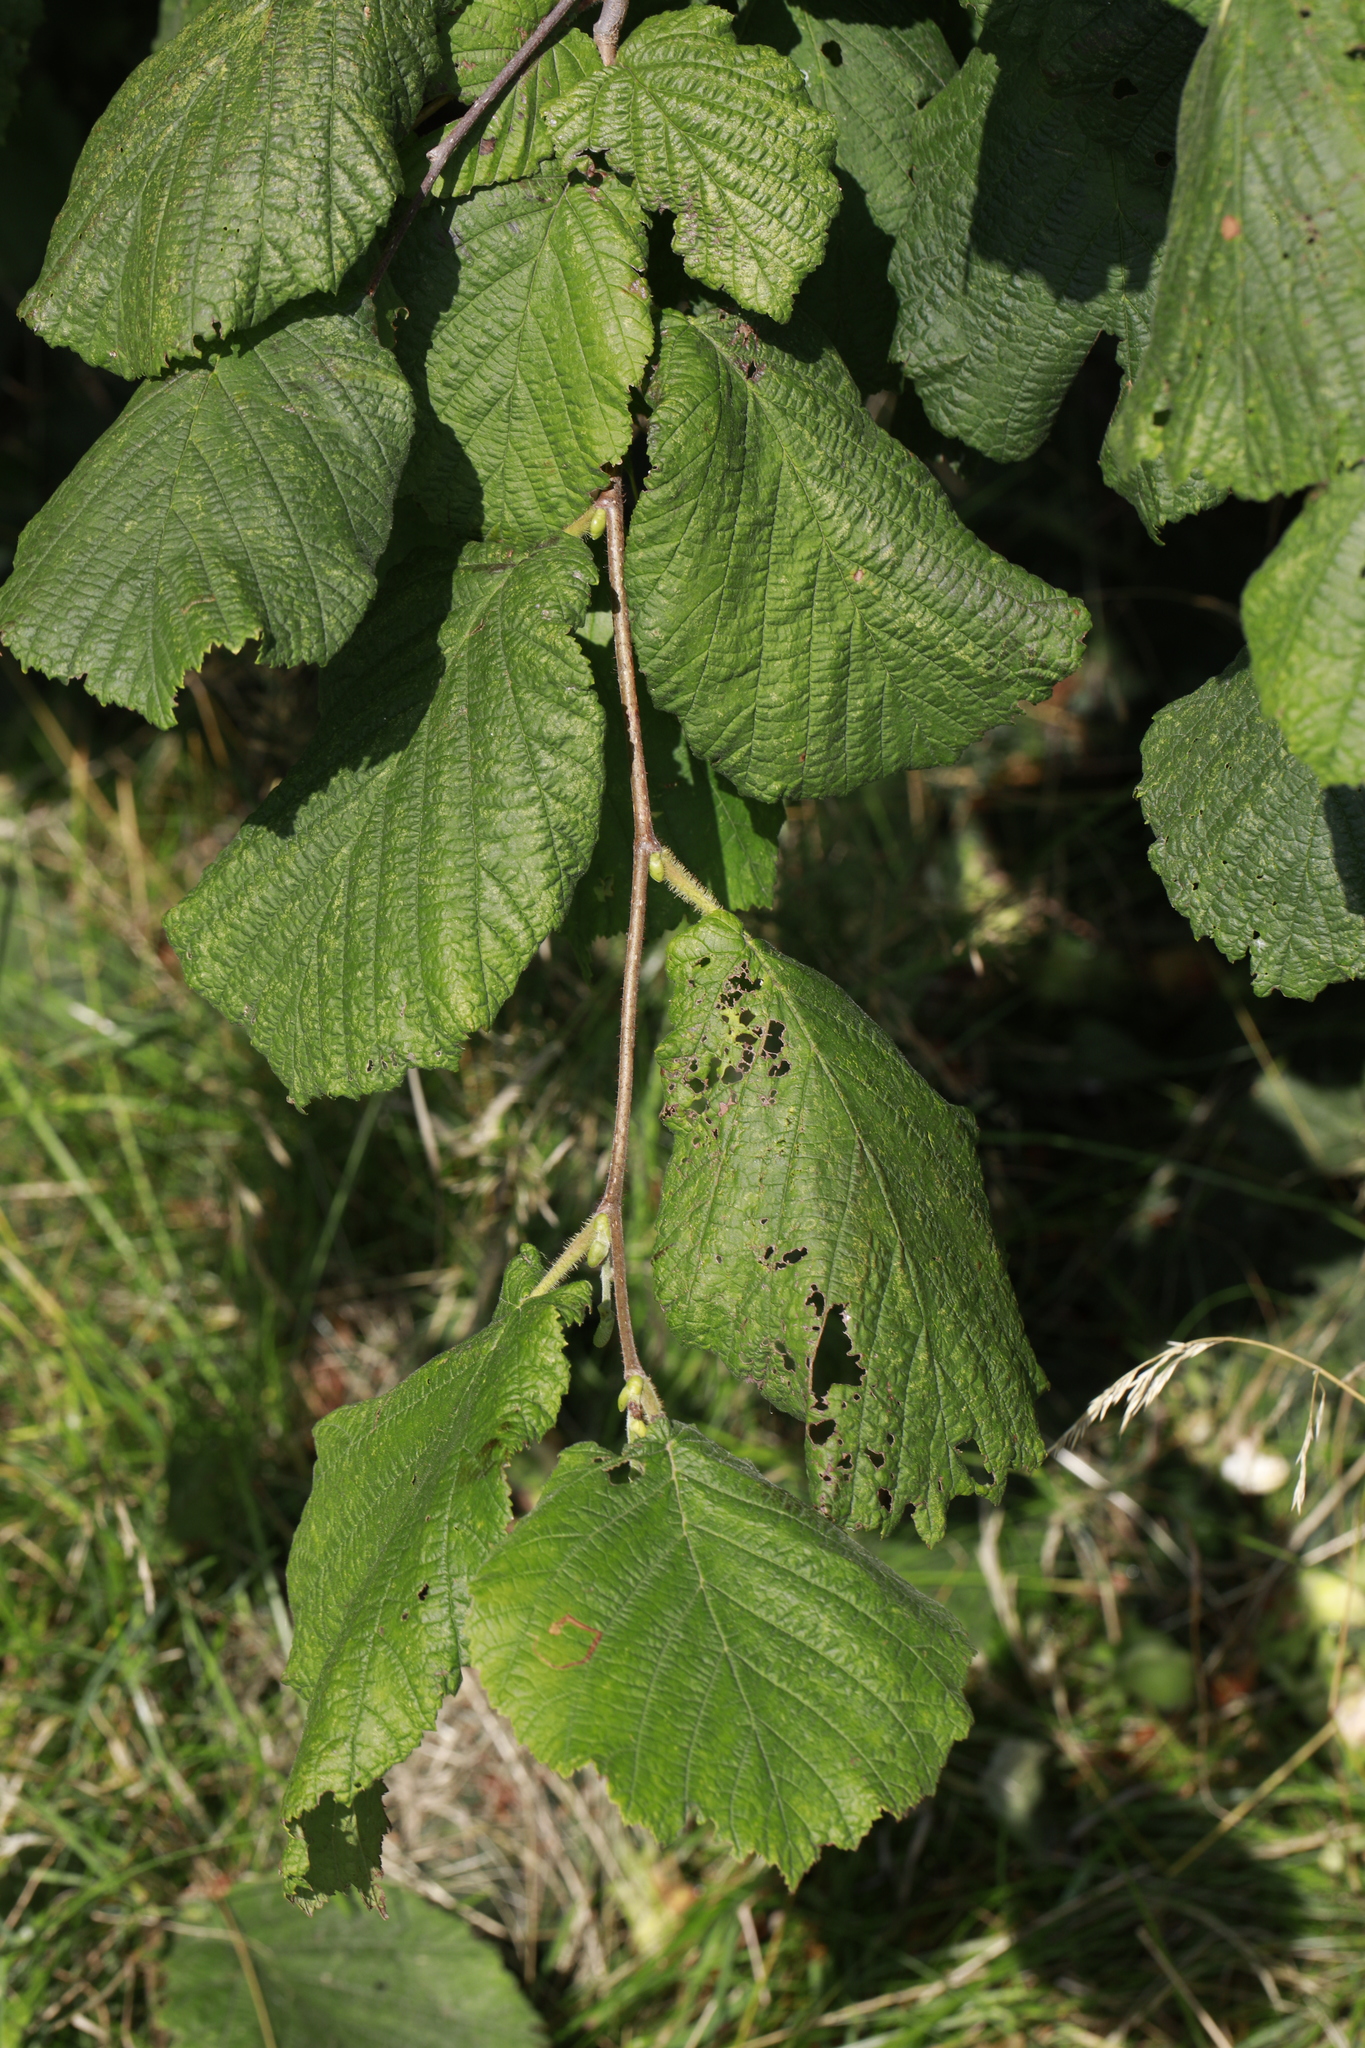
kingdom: Plantae
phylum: Tracheophyta
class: Magnoliopsida
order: Fagales
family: Betulaceae
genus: Corylus
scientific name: Corylus avellana
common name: European hazel
